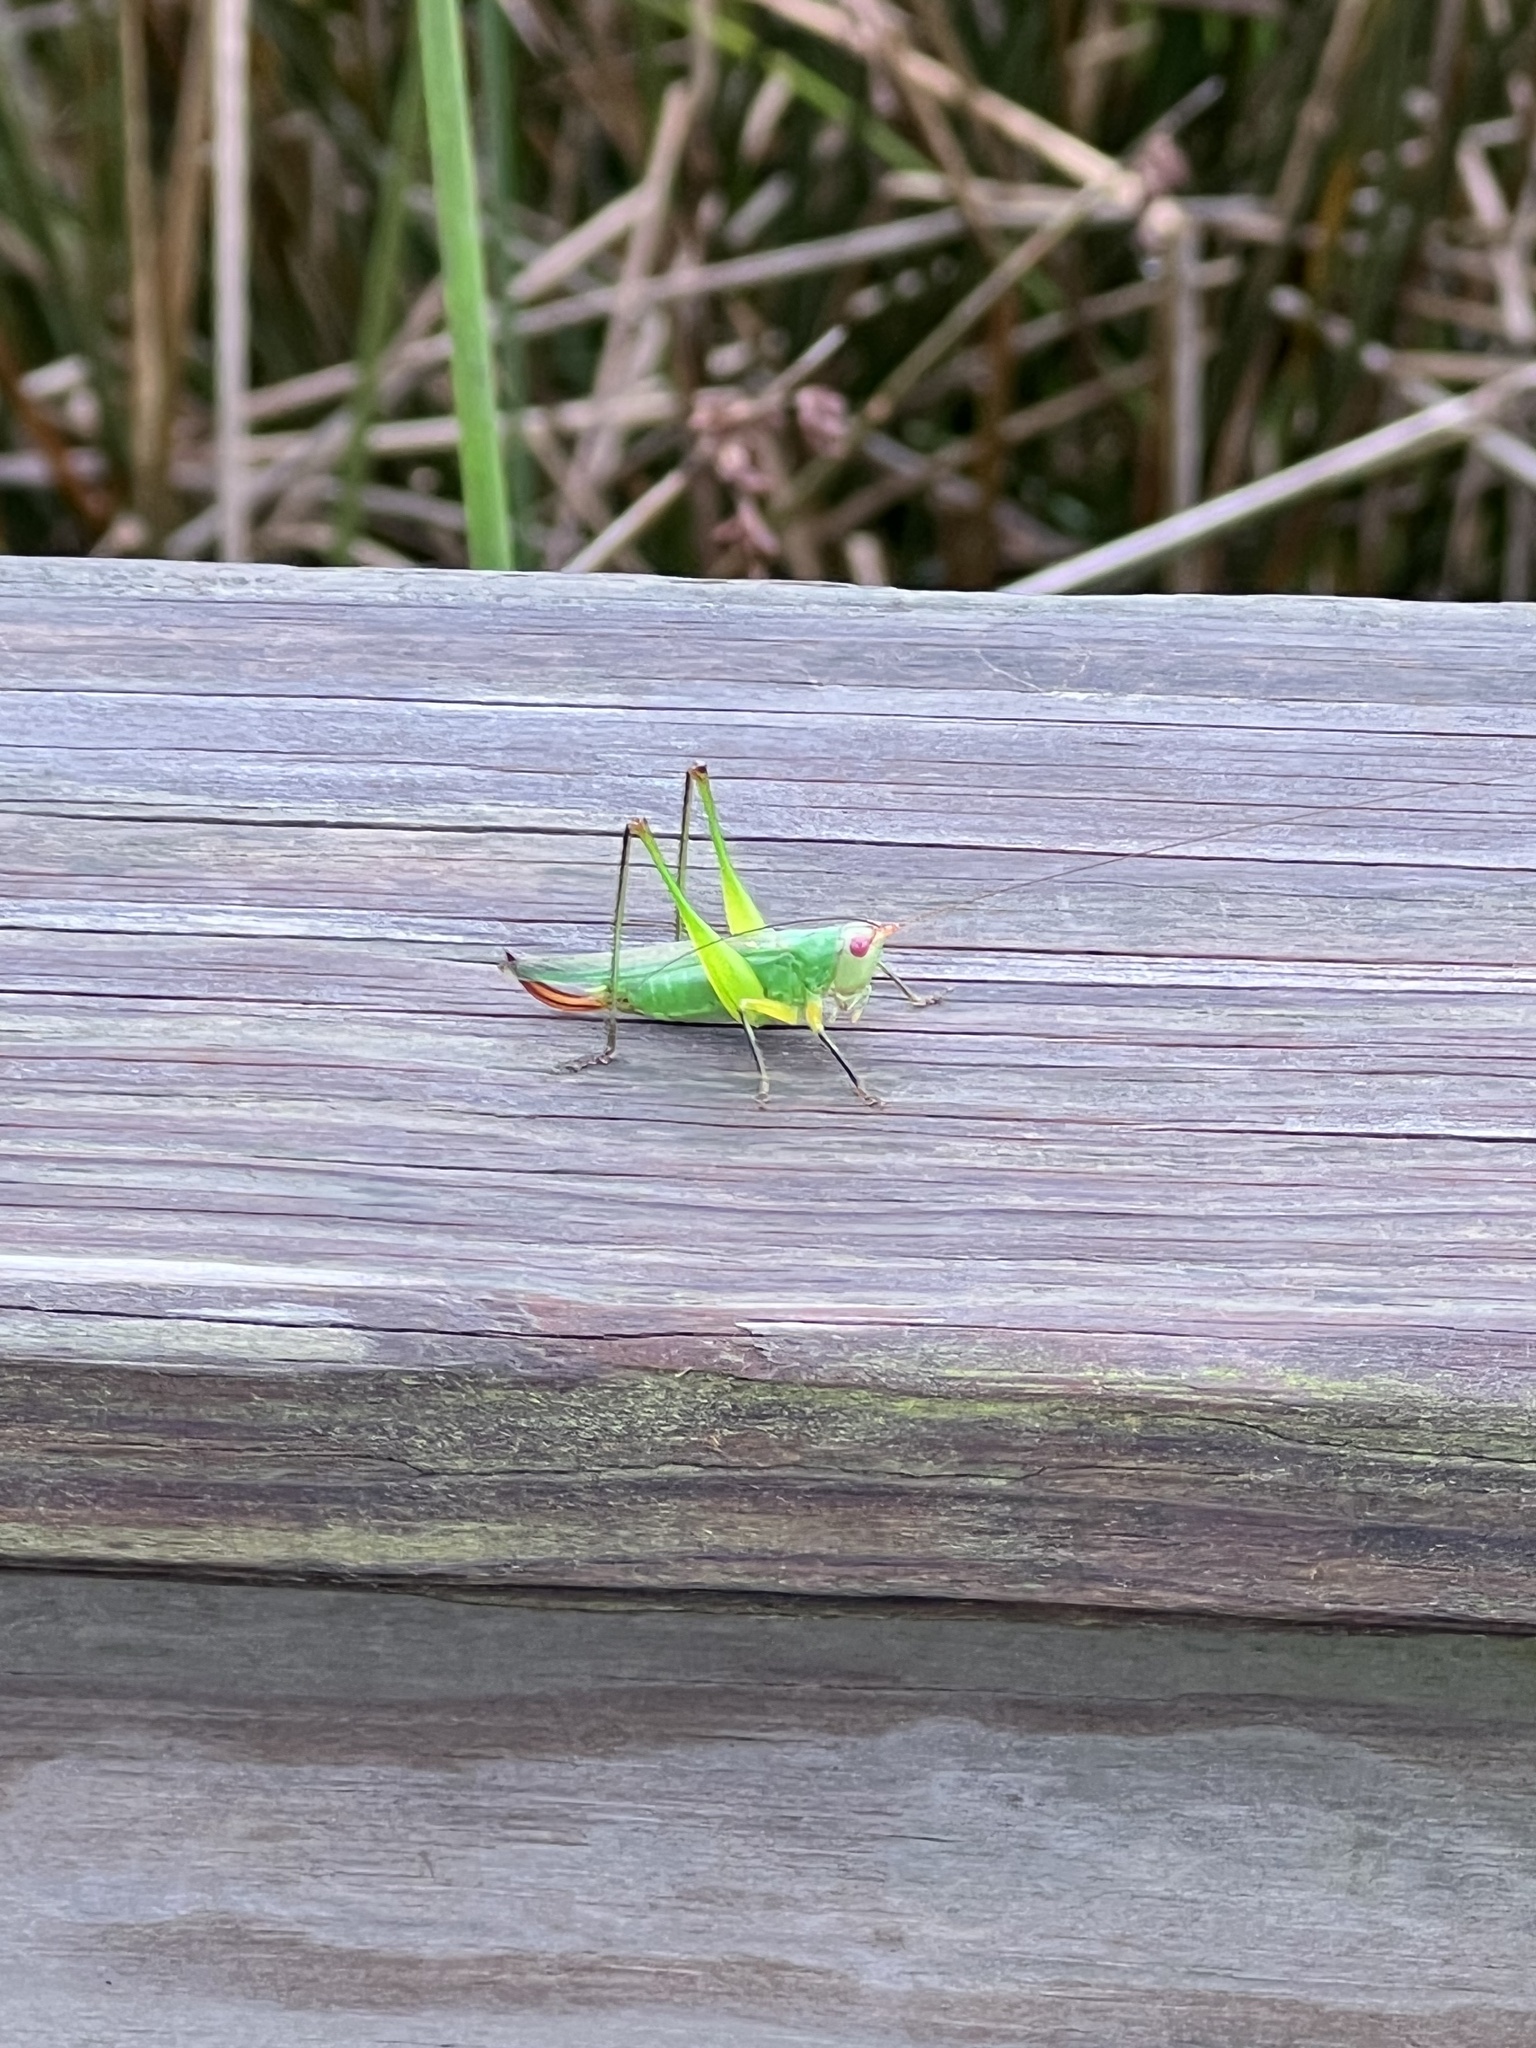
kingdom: Animalia
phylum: Arthropoda
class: Insecta
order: Orthoptera
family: Tettigoniidae
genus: Orchelimum
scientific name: Orchelimum nigripes
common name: Black-legged meadow katydid
